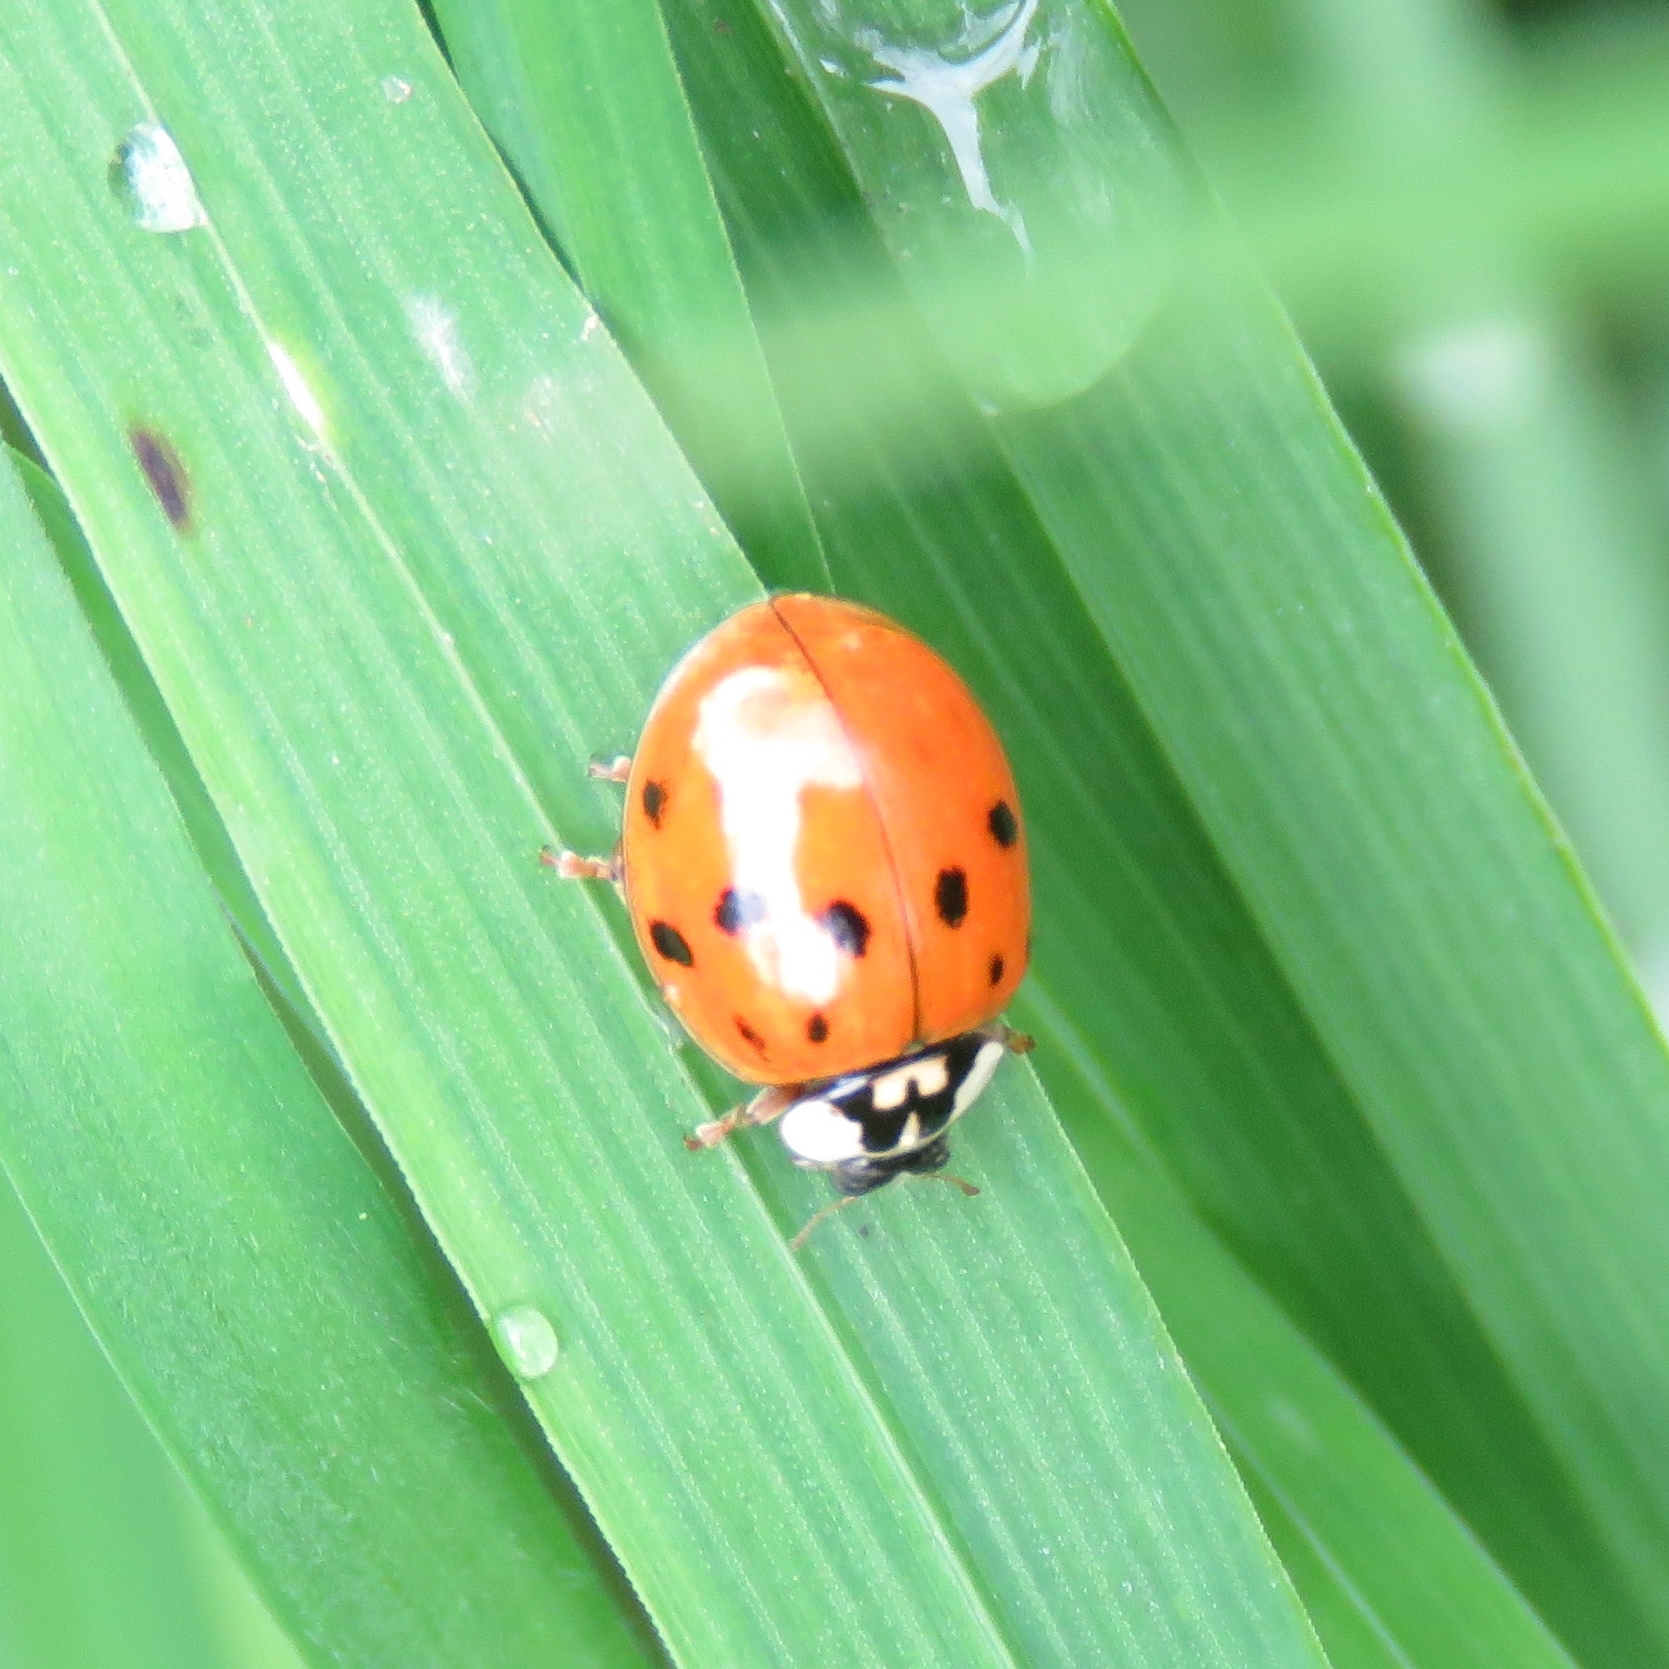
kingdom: Animalia
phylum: Arthropoda
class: Insecta
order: Coleoptera
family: Coccinellidae
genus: Harmonia
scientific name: Harmonia axyridis
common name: Harlequin ladybird
